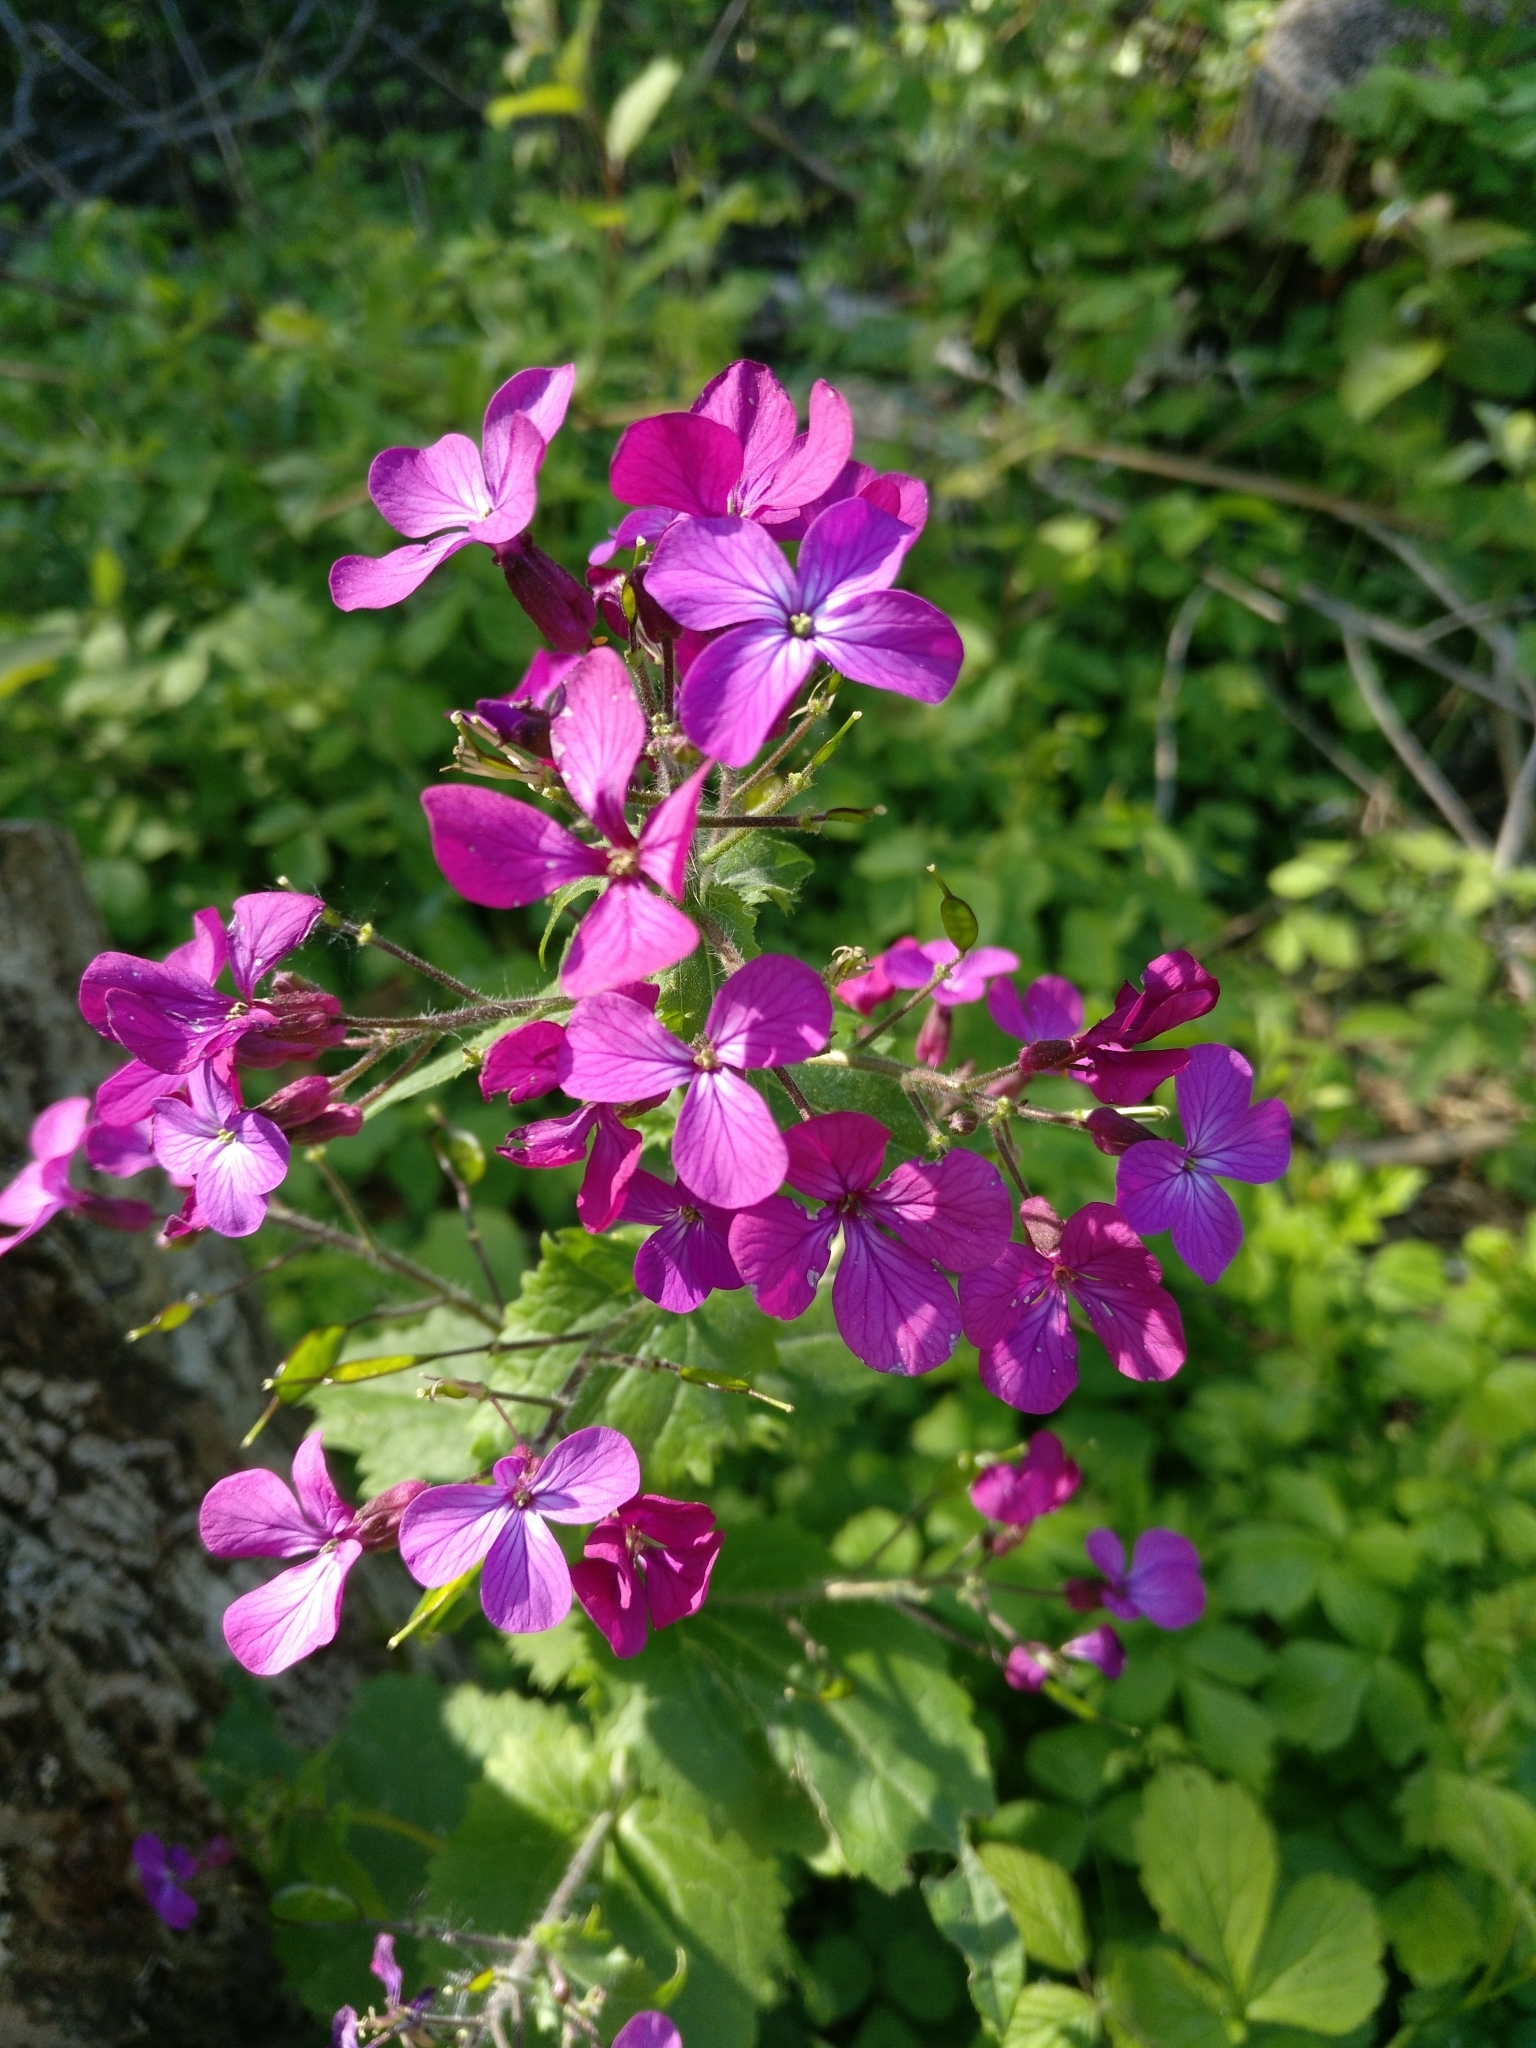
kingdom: Plantae
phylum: Tracheophyta
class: Magnoliopsida
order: Brassicales
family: Brassicaceae
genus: Lunaria
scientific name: Lunaria annua
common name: Honesty
